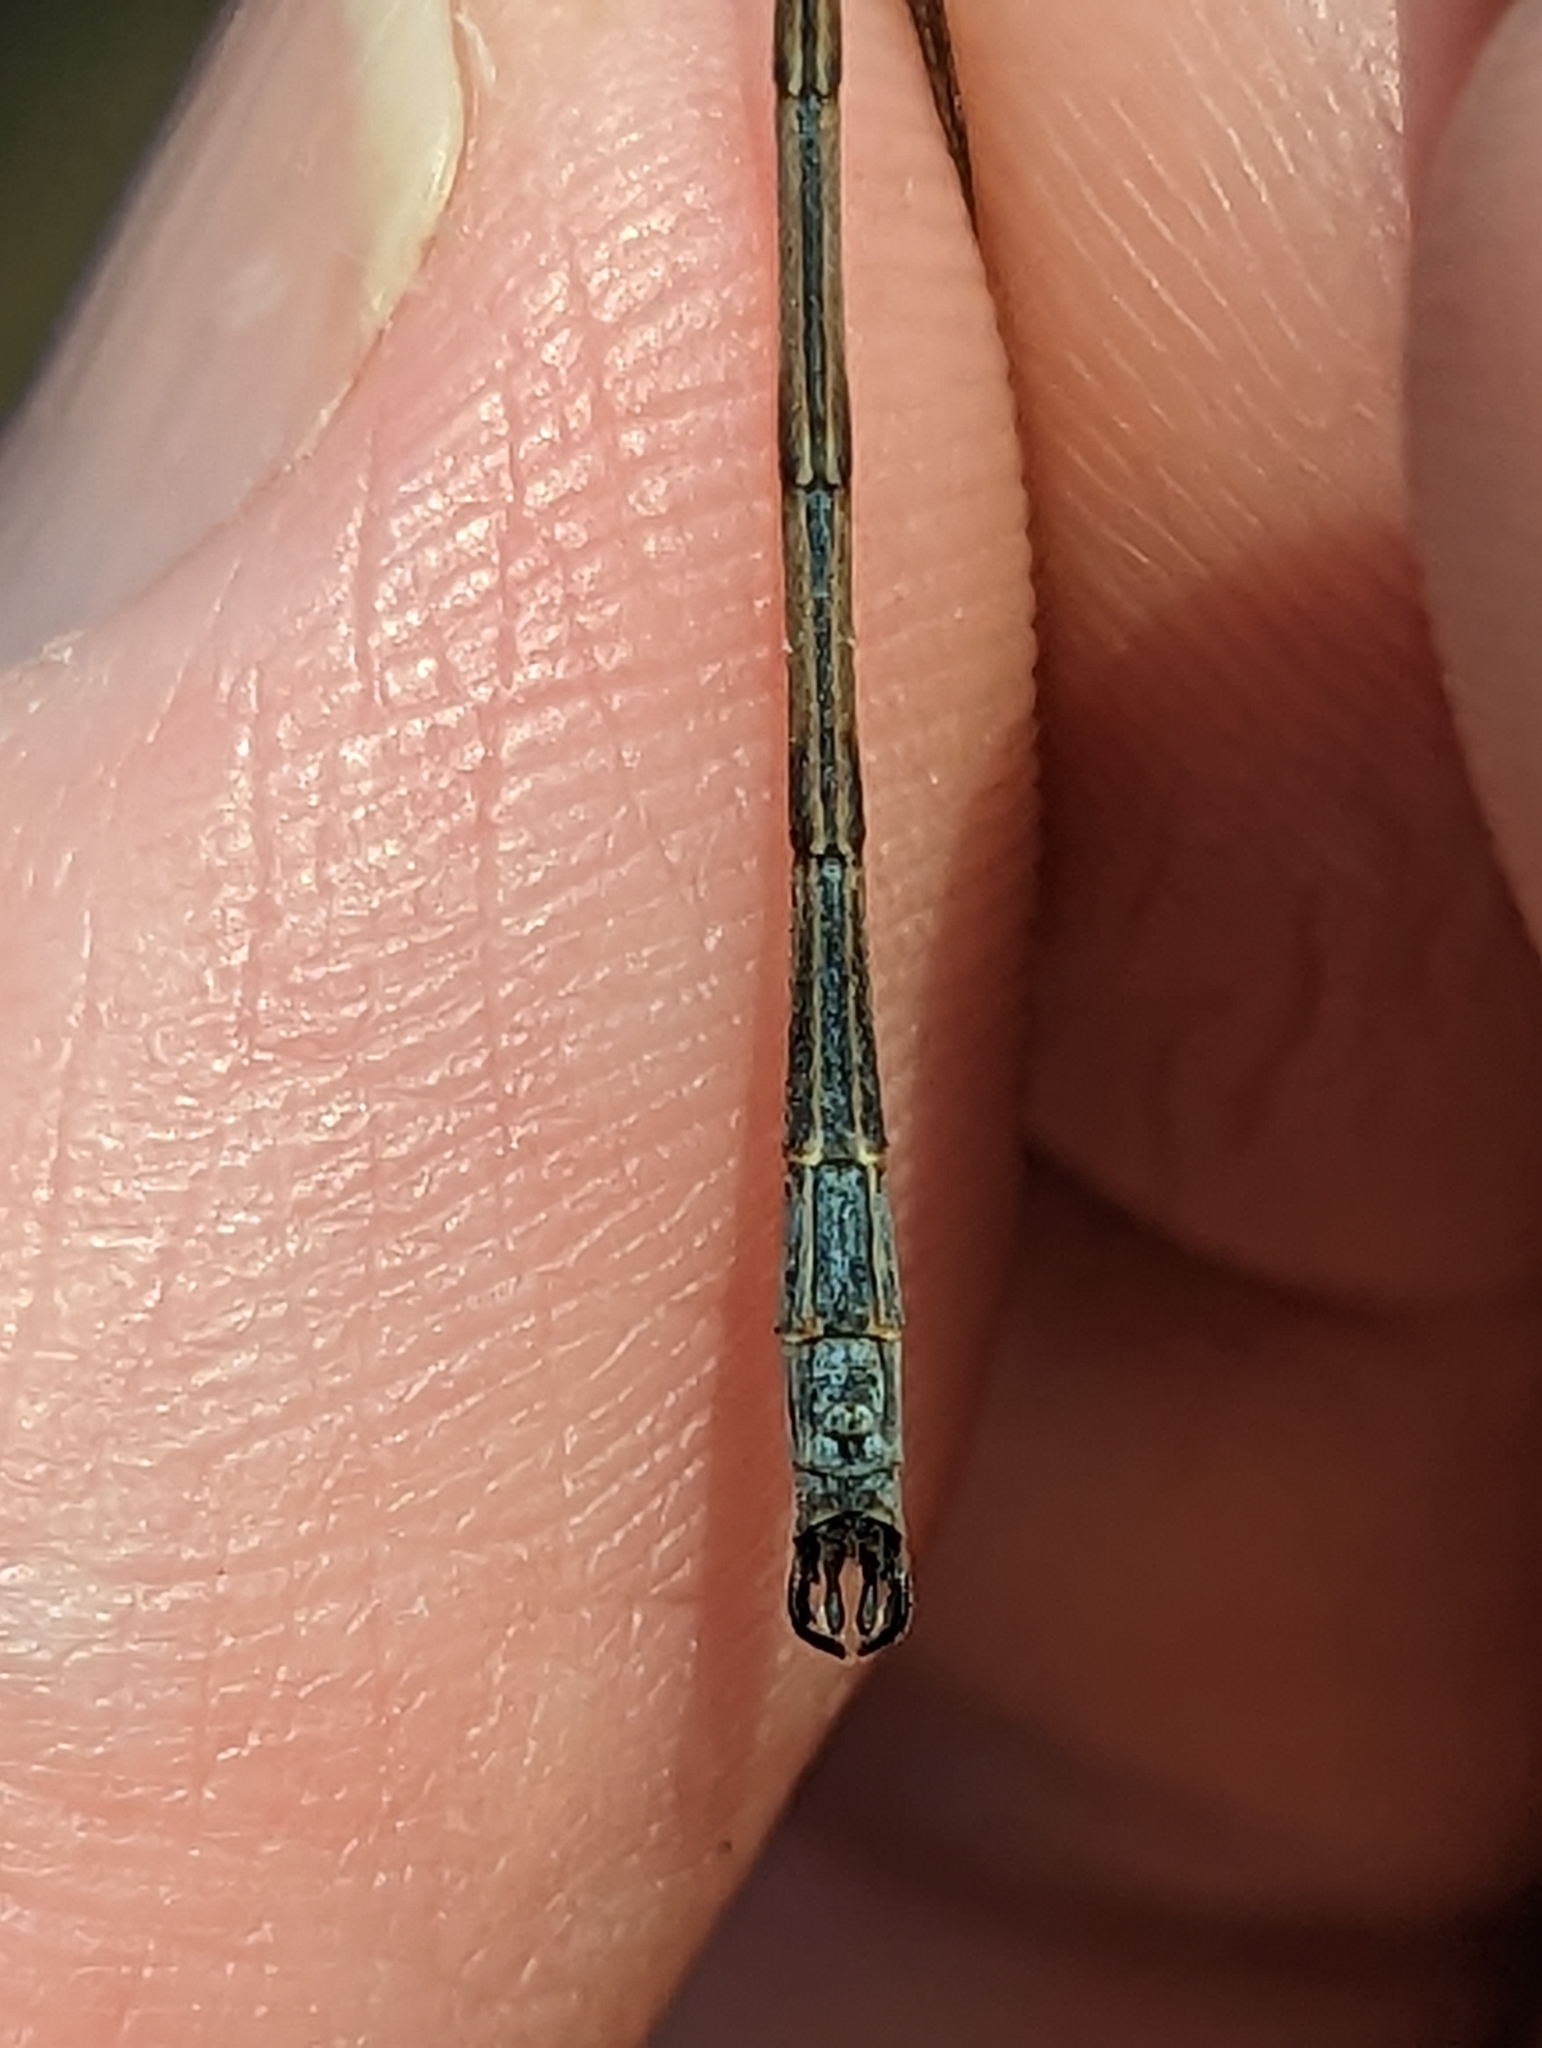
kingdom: Animalia
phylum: Arthropoda
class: Insecta
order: Odonata
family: Lestidae
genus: Lestes
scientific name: Lestes disjunctus
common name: Northern spreadwing
